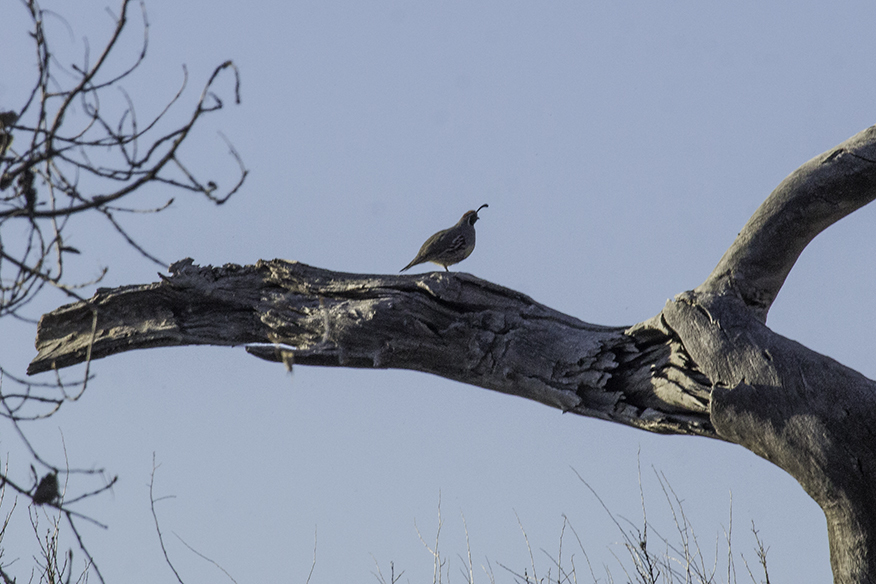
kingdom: Animalia
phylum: Chordata
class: Aves
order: Galliformes
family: Odontophoridae
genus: Callipepla
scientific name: Callipepla gambelii
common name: Gambel's quail
